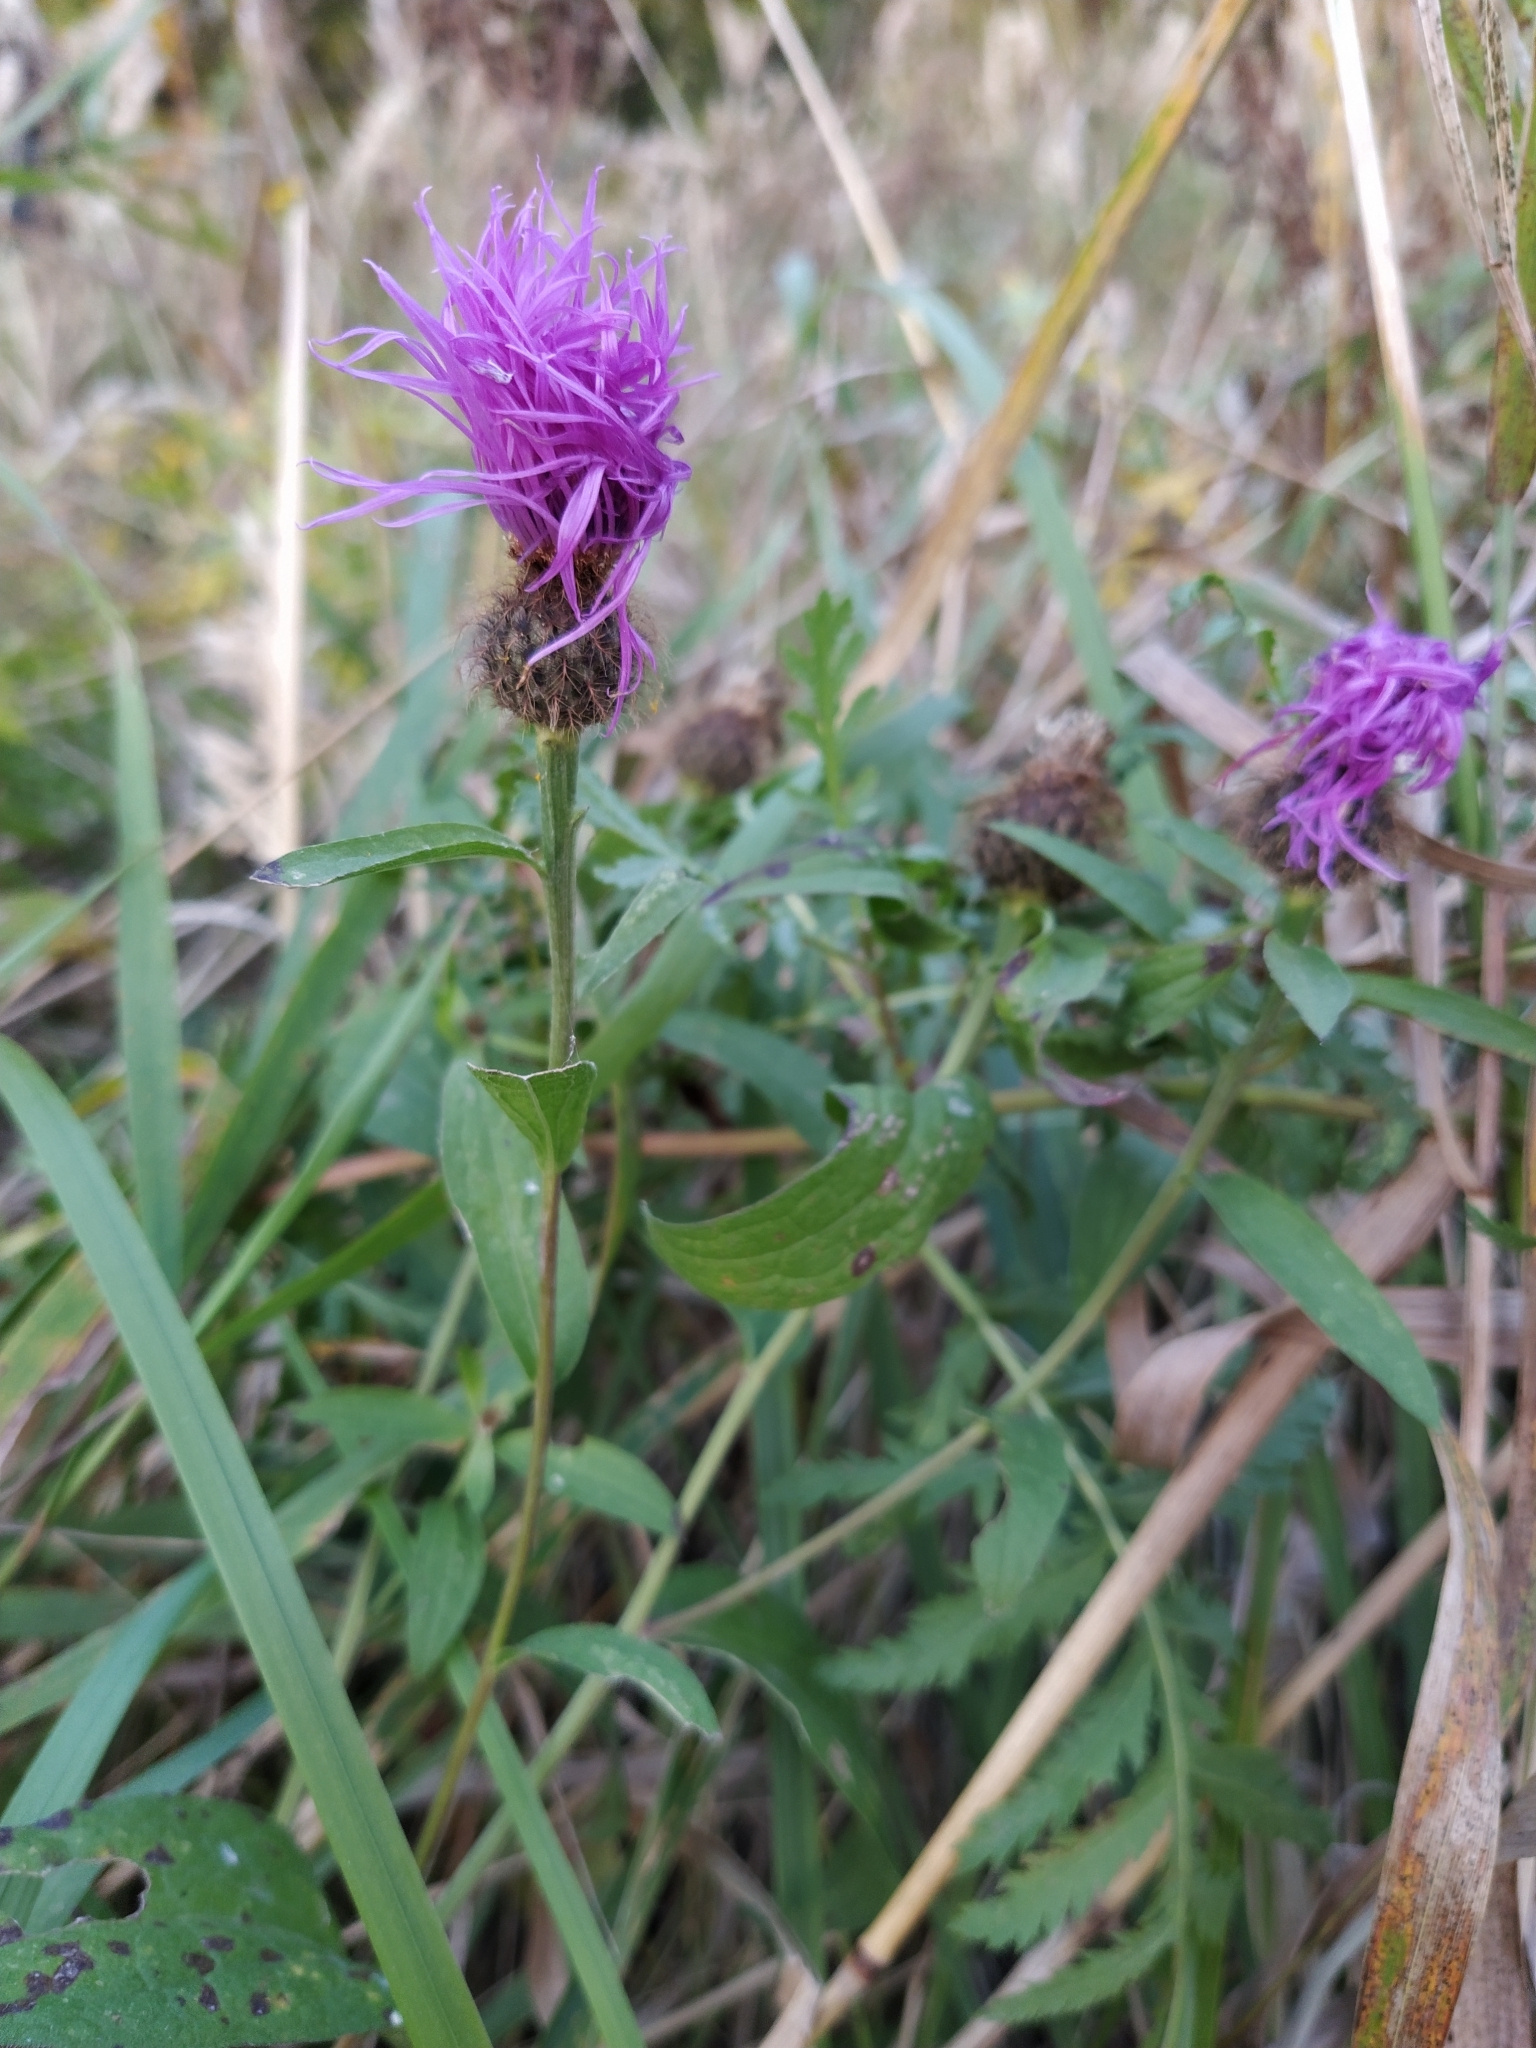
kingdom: Plantae
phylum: Tracheophyta
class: Magnoliopsida
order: Asterales
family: Asteraceae
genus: Centaurea
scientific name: Centaurea phrygia
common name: Wig knapweed
